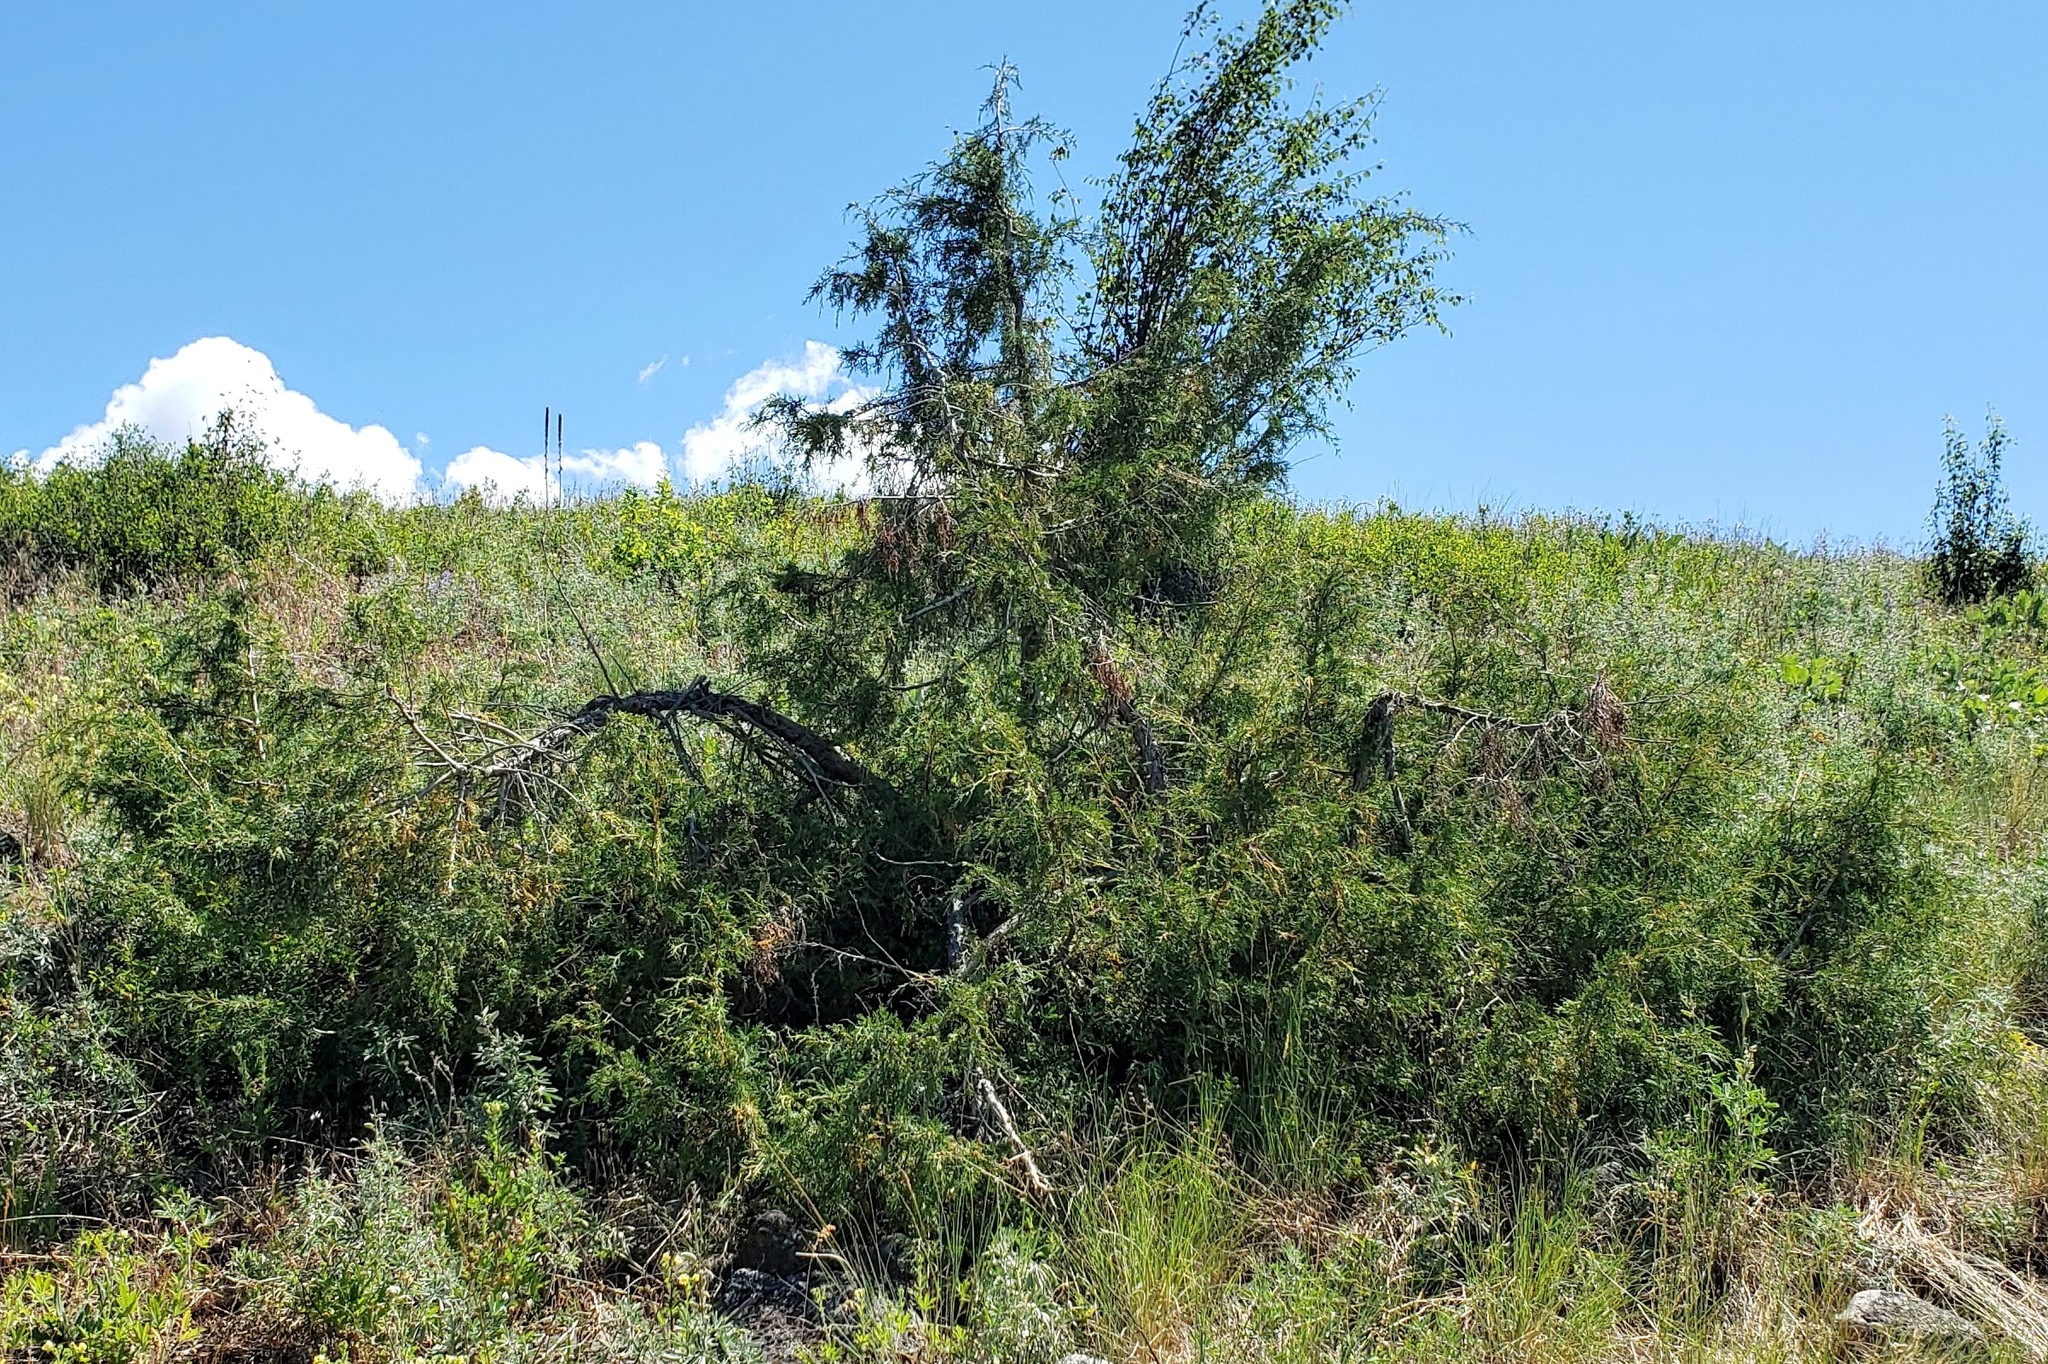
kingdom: Plantae
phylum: Tracheophyta
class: Pinopsida
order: Pinales
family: Cupressaceae
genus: Juniperus
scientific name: Juniperus scopulorum
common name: Rocky mountain juniper
